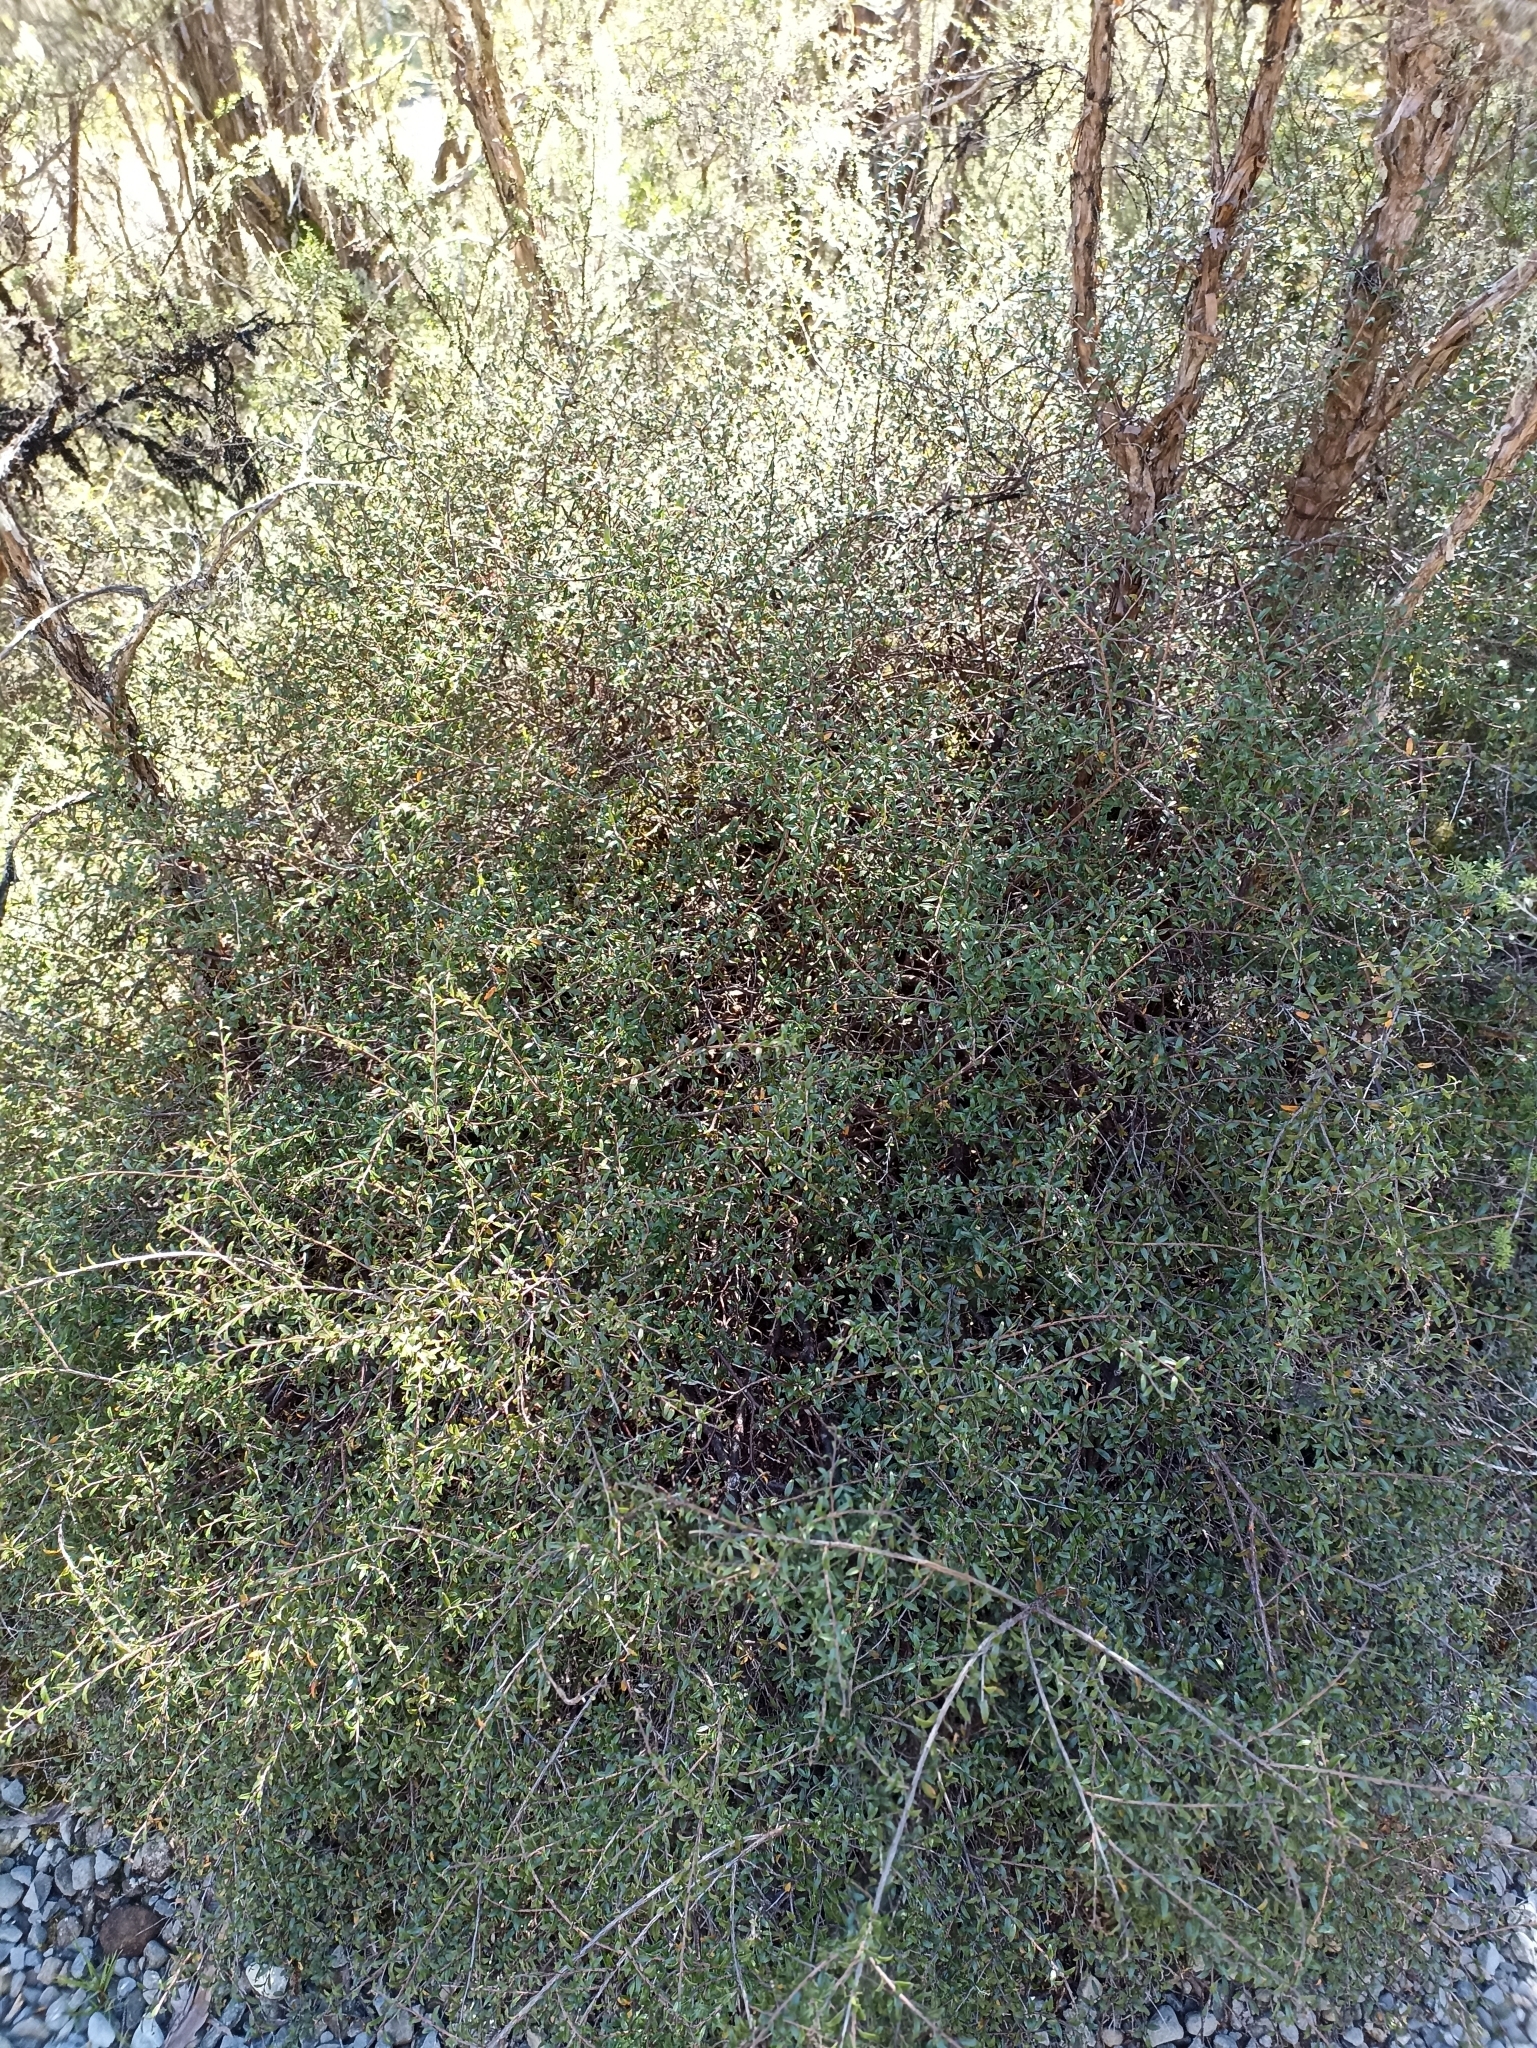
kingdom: Plantae
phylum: Tracheophyta
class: Magnoliopsida
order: Ericales
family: Ericaceae
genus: Gaultheria
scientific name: Gaultheria macrostigma
